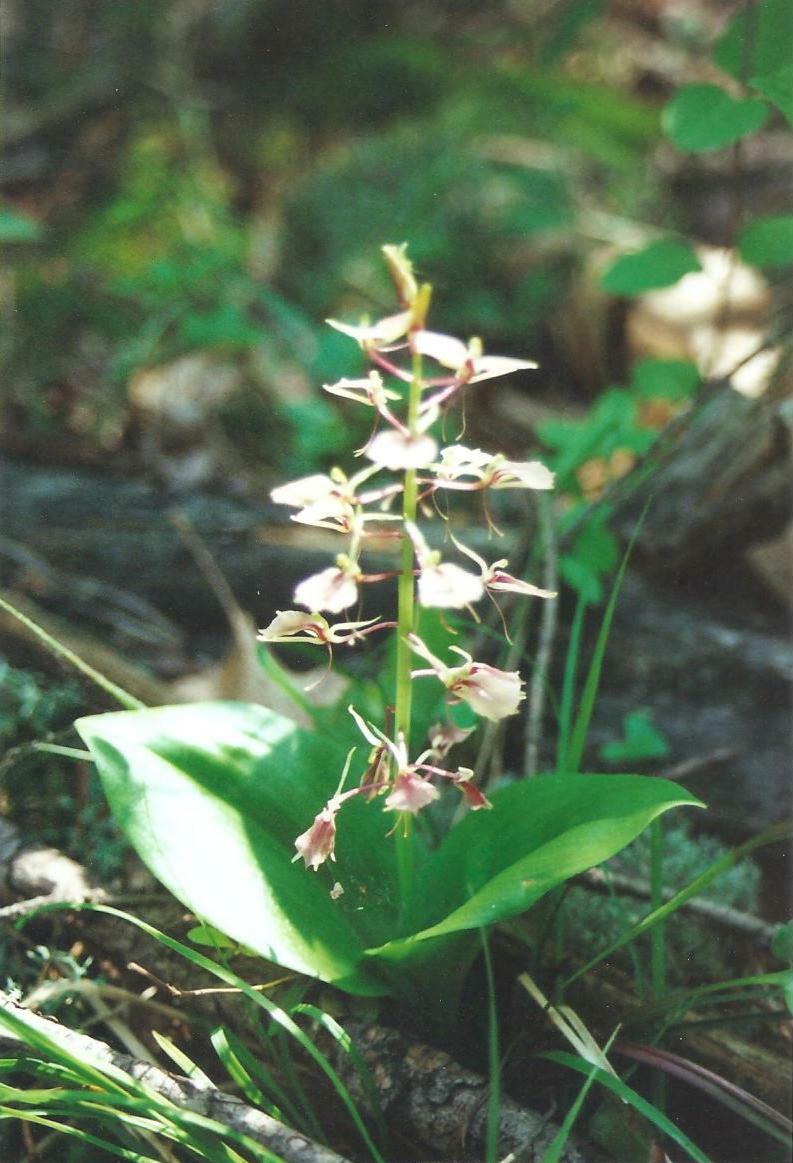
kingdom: Plantae
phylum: Tracheophyta
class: Liliopsida
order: Asparagales
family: Orchidaceae
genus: Liparis
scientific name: Liparis liliifolia
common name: Brown wide-lip orchid
